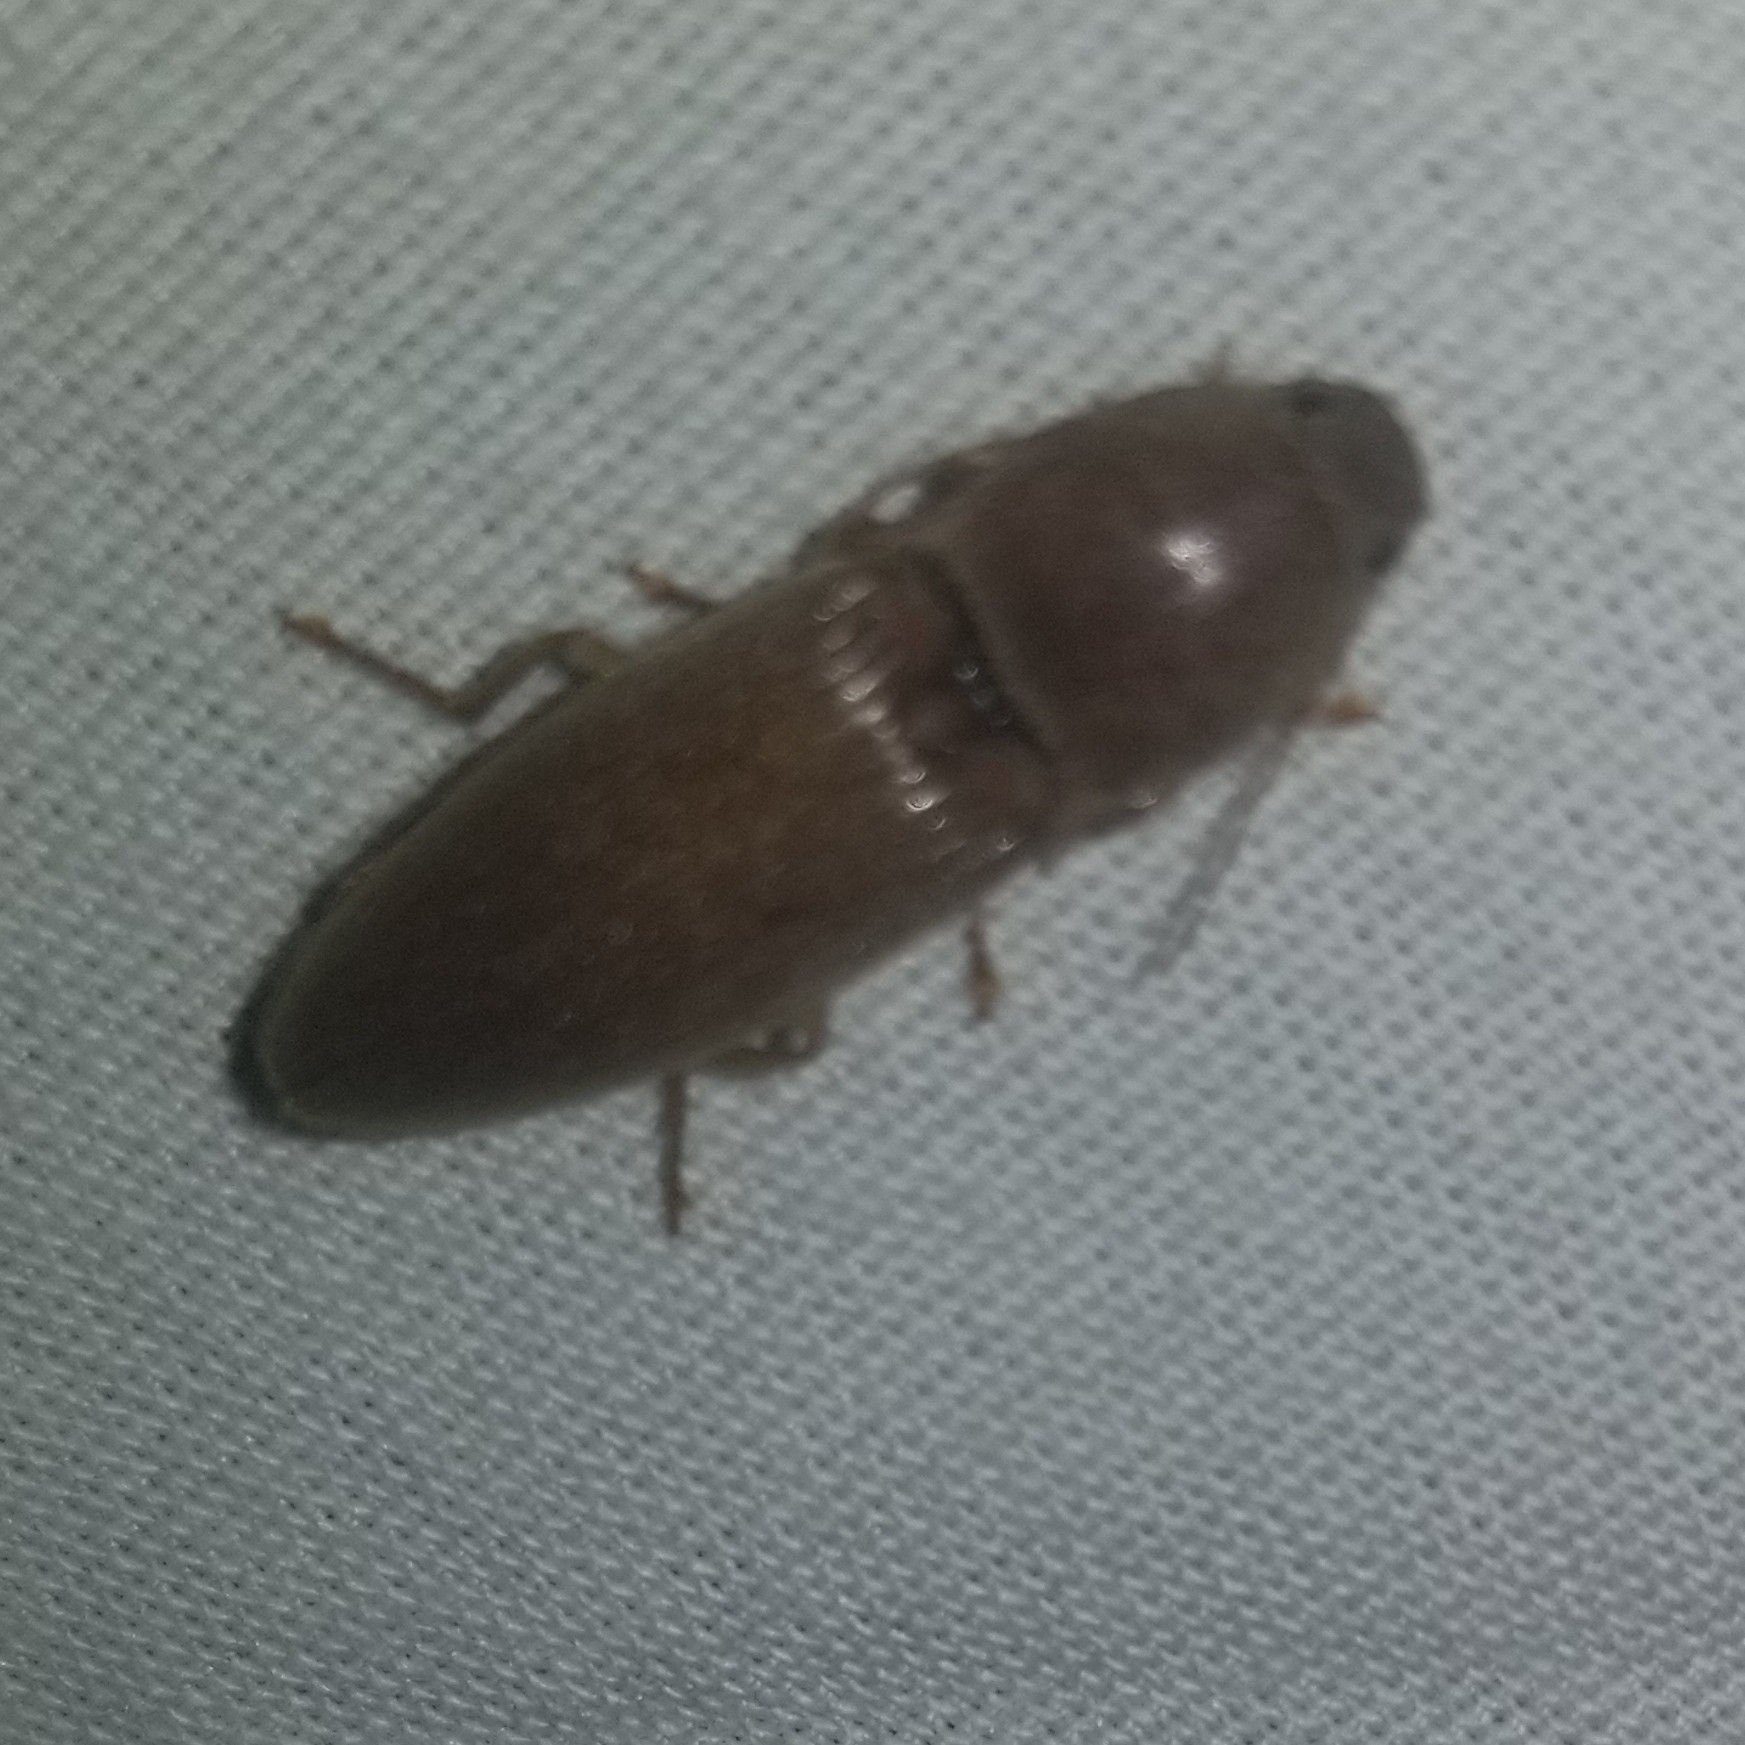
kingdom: Animalia
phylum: Arthropoda
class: Insecta
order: Coleoptera
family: Elateridae
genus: Monocrepidius
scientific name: Monocrepidius lividus
